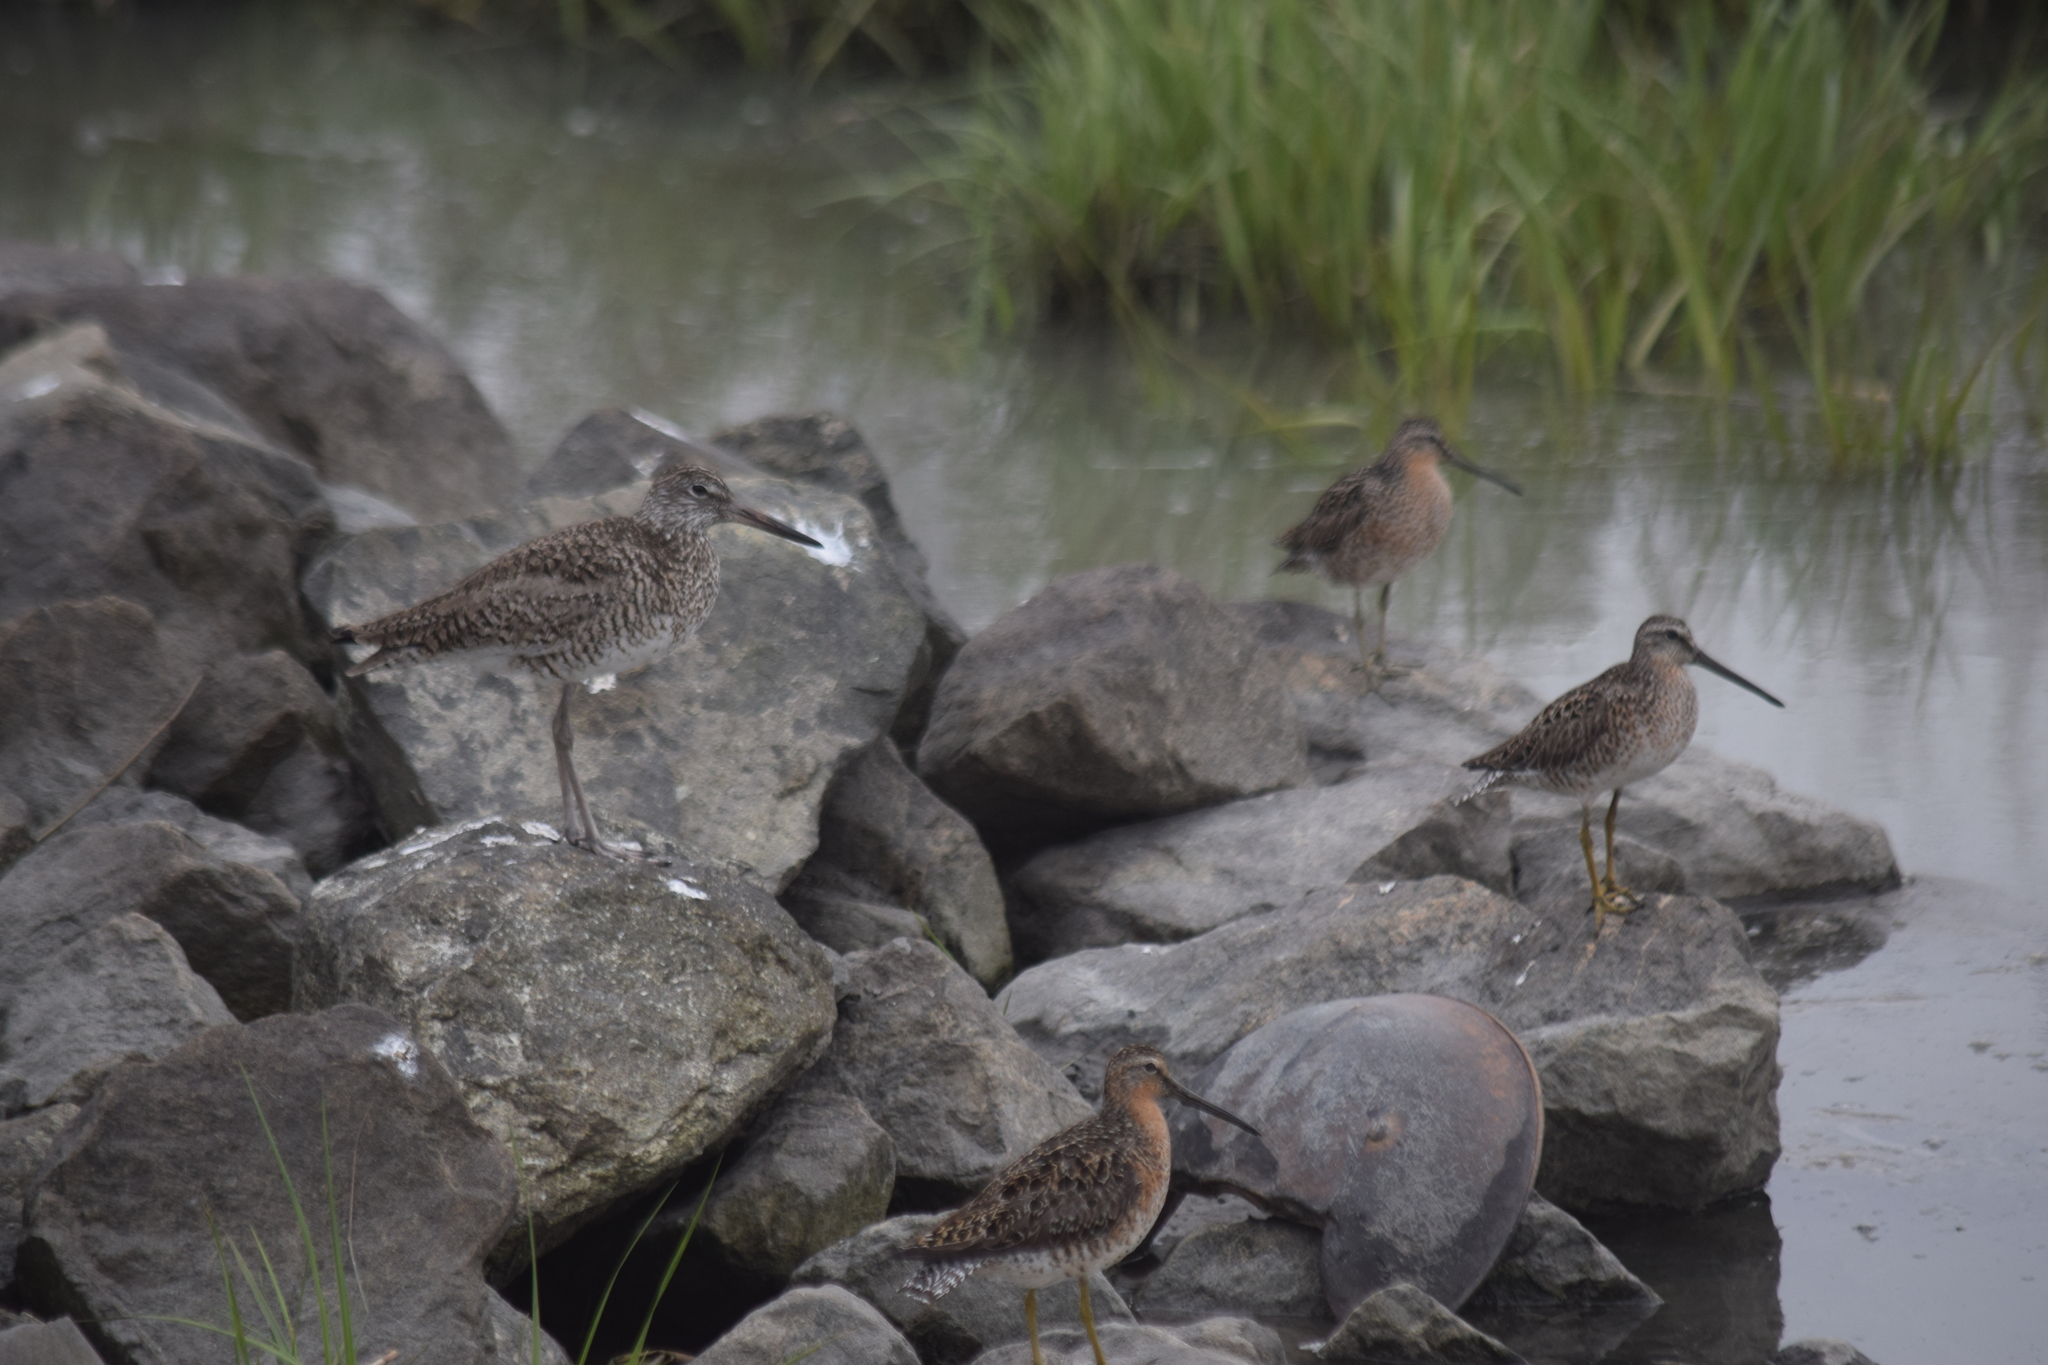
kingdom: Animalia
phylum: Chordata
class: Aves
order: Charadriiformes
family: Scolopacidae
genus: Tringa
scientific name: Tringa semipalmata
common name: Willet
